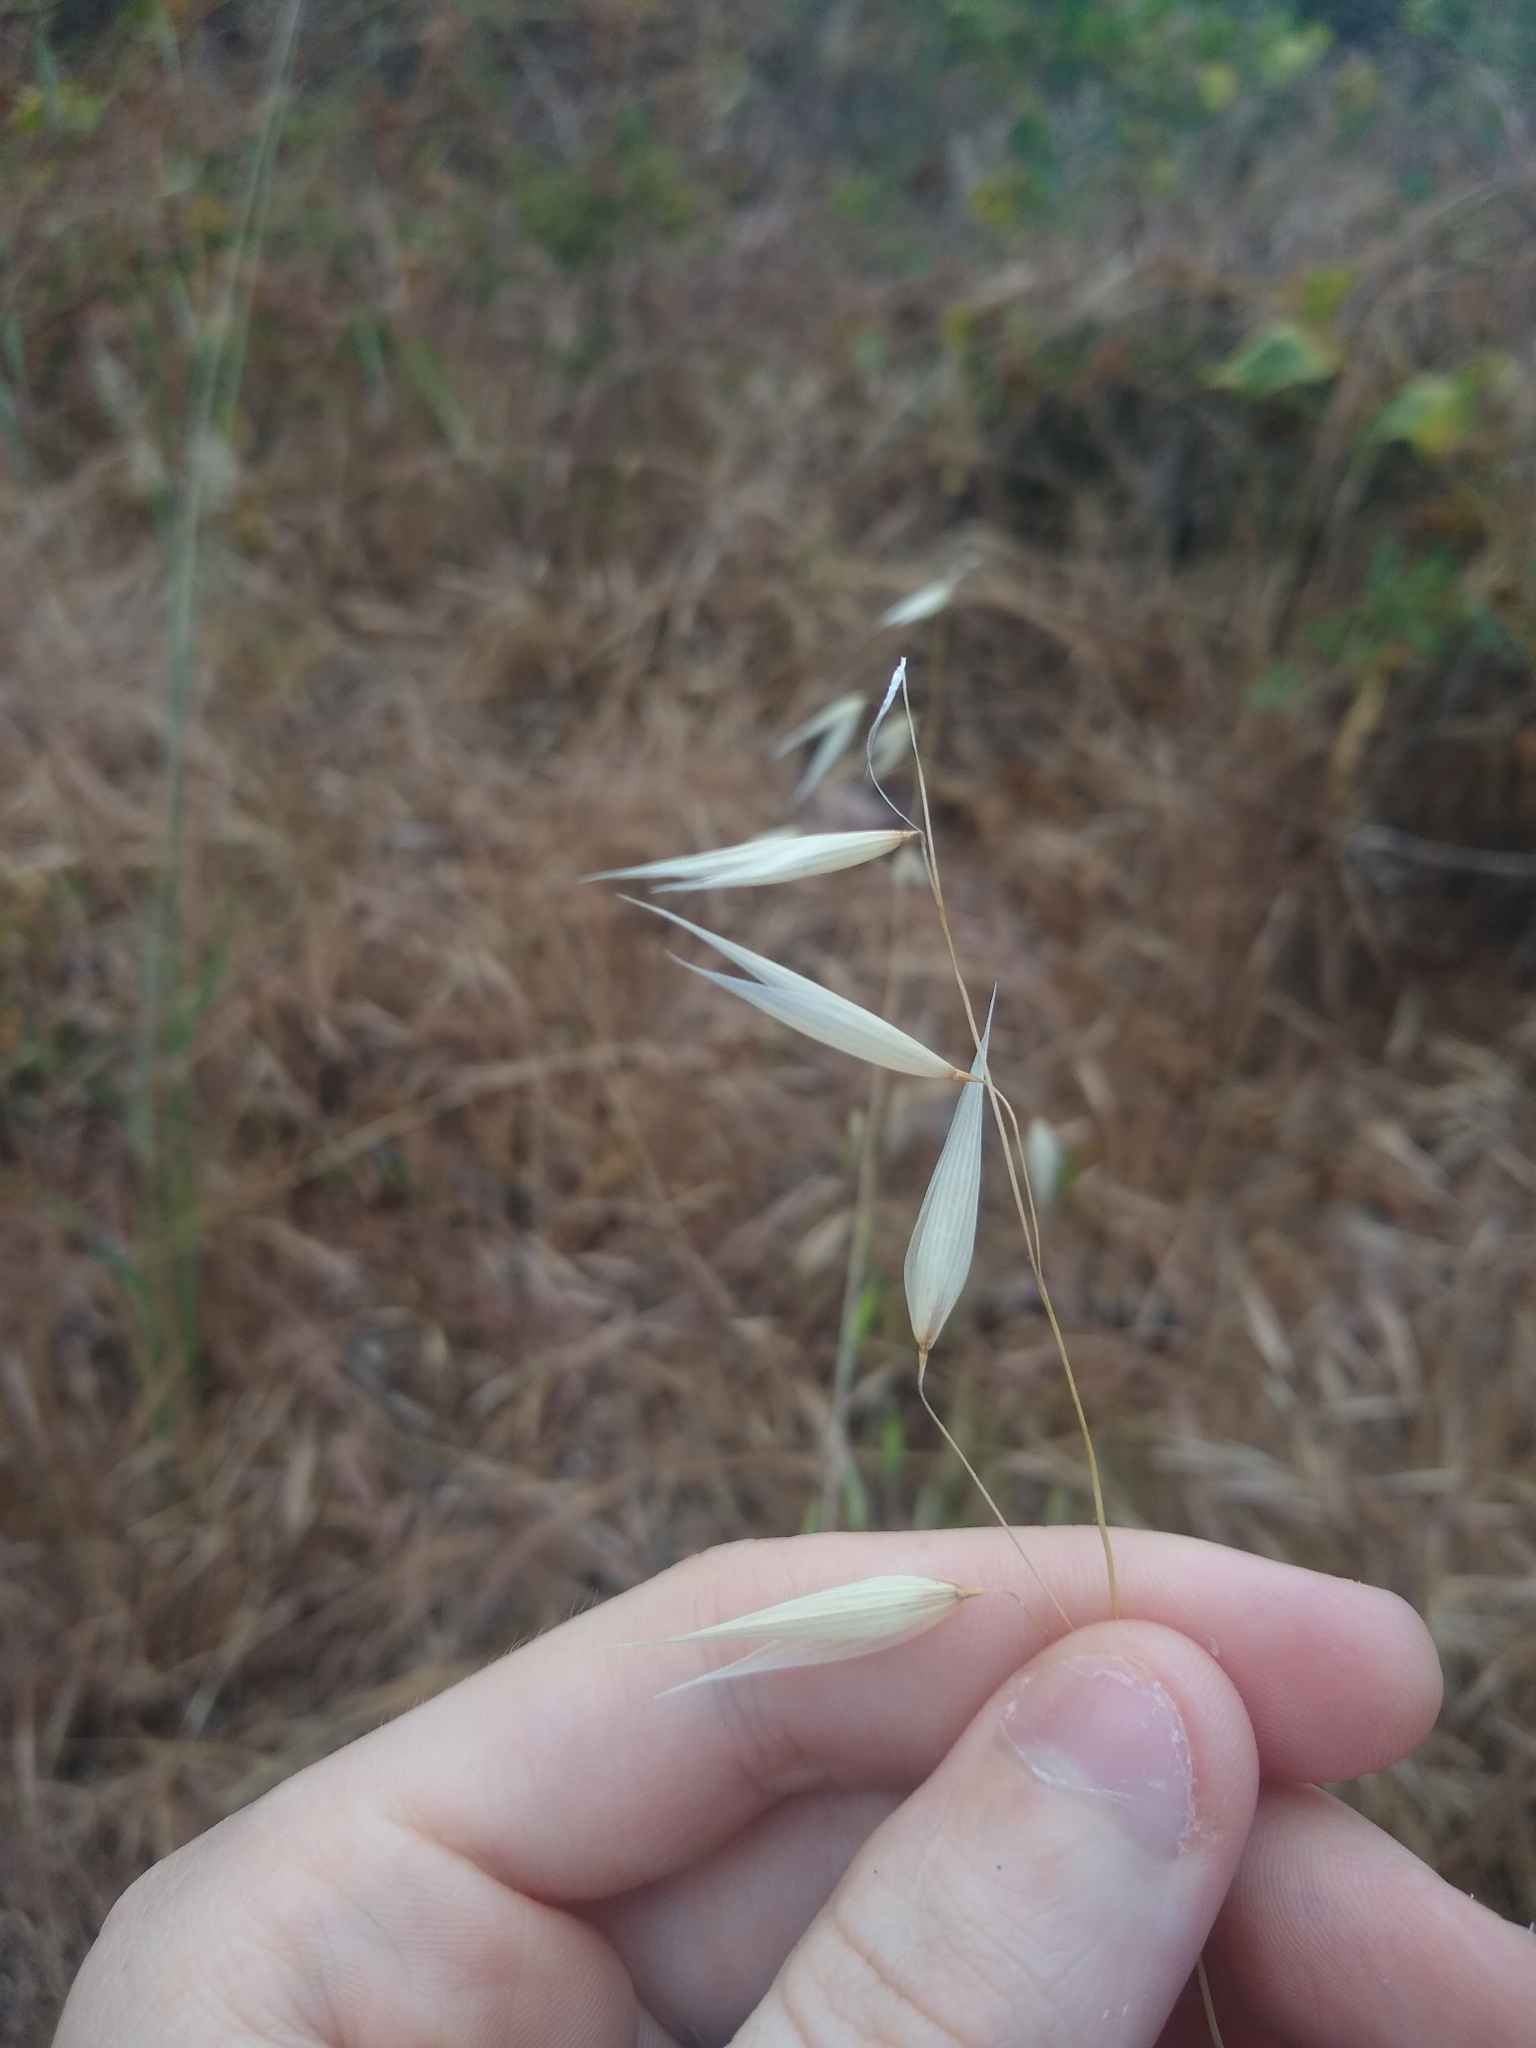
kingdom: Plantae
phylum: Tracheophyta
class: Liliopsida
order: Poales
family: Poaceae
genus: Avena
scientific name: Avena
